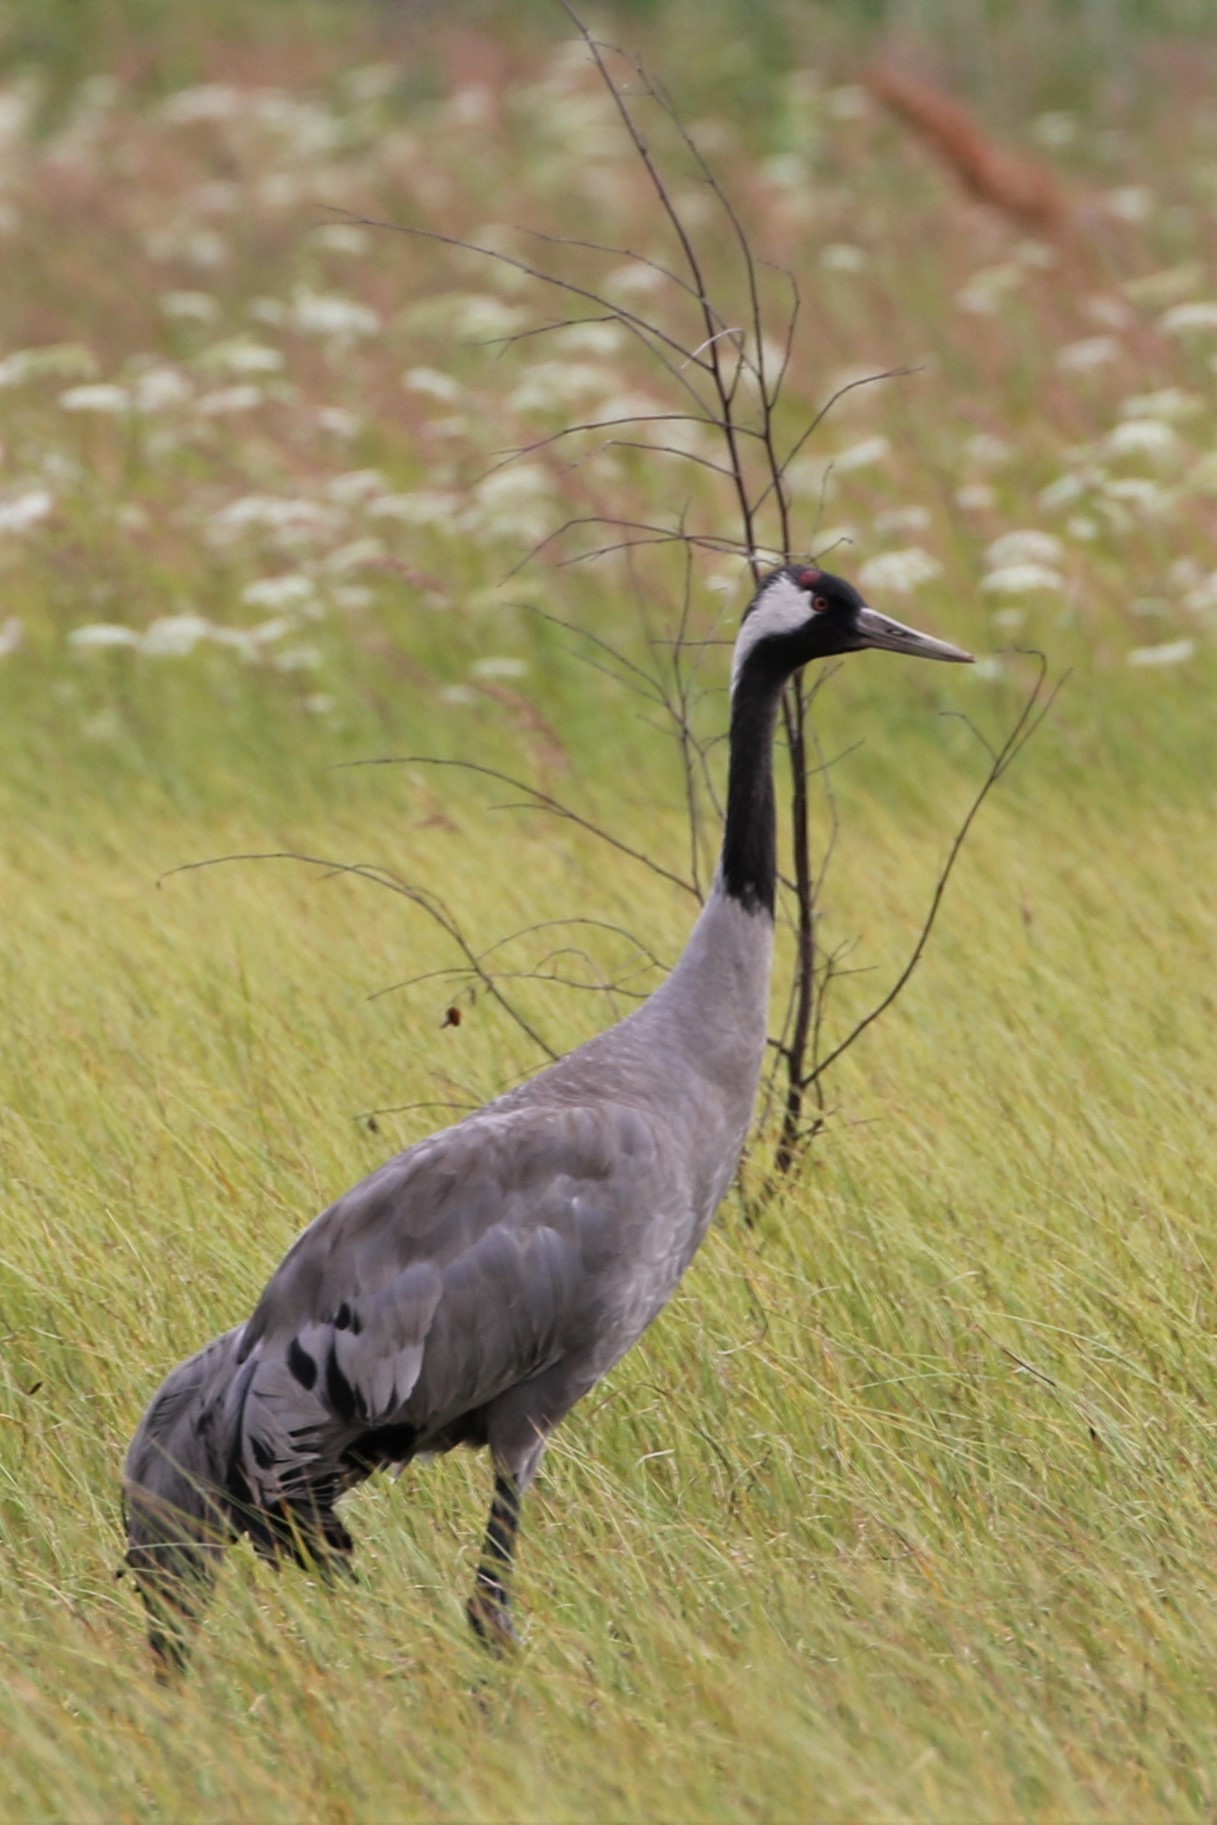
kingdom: Animalia
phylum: Chordata
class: Aves
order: Gruiformes
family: Gruidae
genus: Grus
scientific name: Grus grus
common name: Common crane
